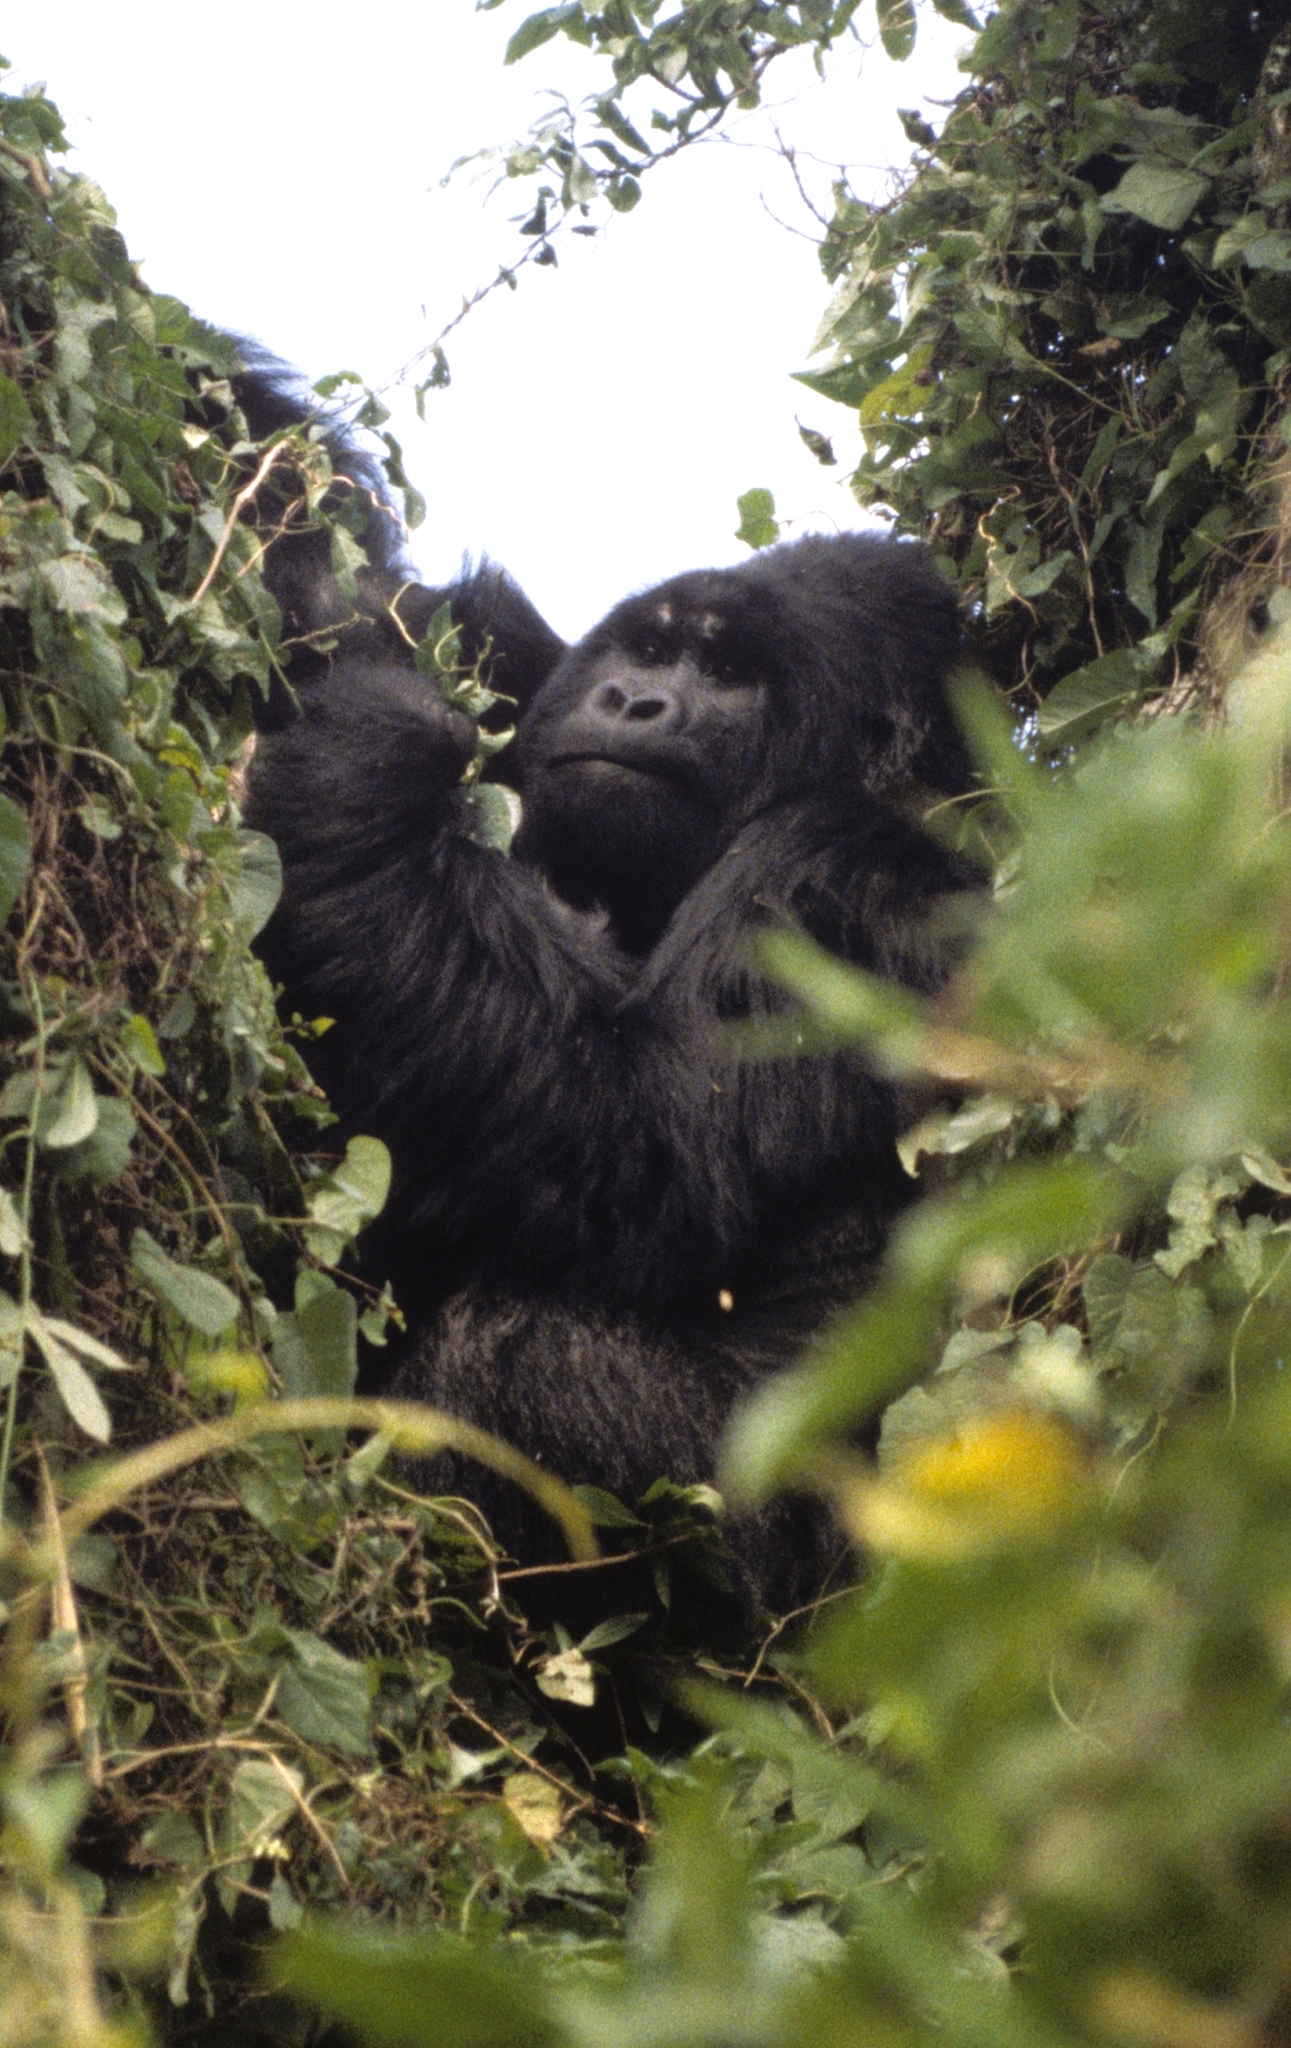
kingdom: Animalia
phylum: Chordata
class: Mammalia
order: Primates
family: Hominidae
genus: Gorilla
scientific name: Gorilla beringei
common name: Eastern gorilla
